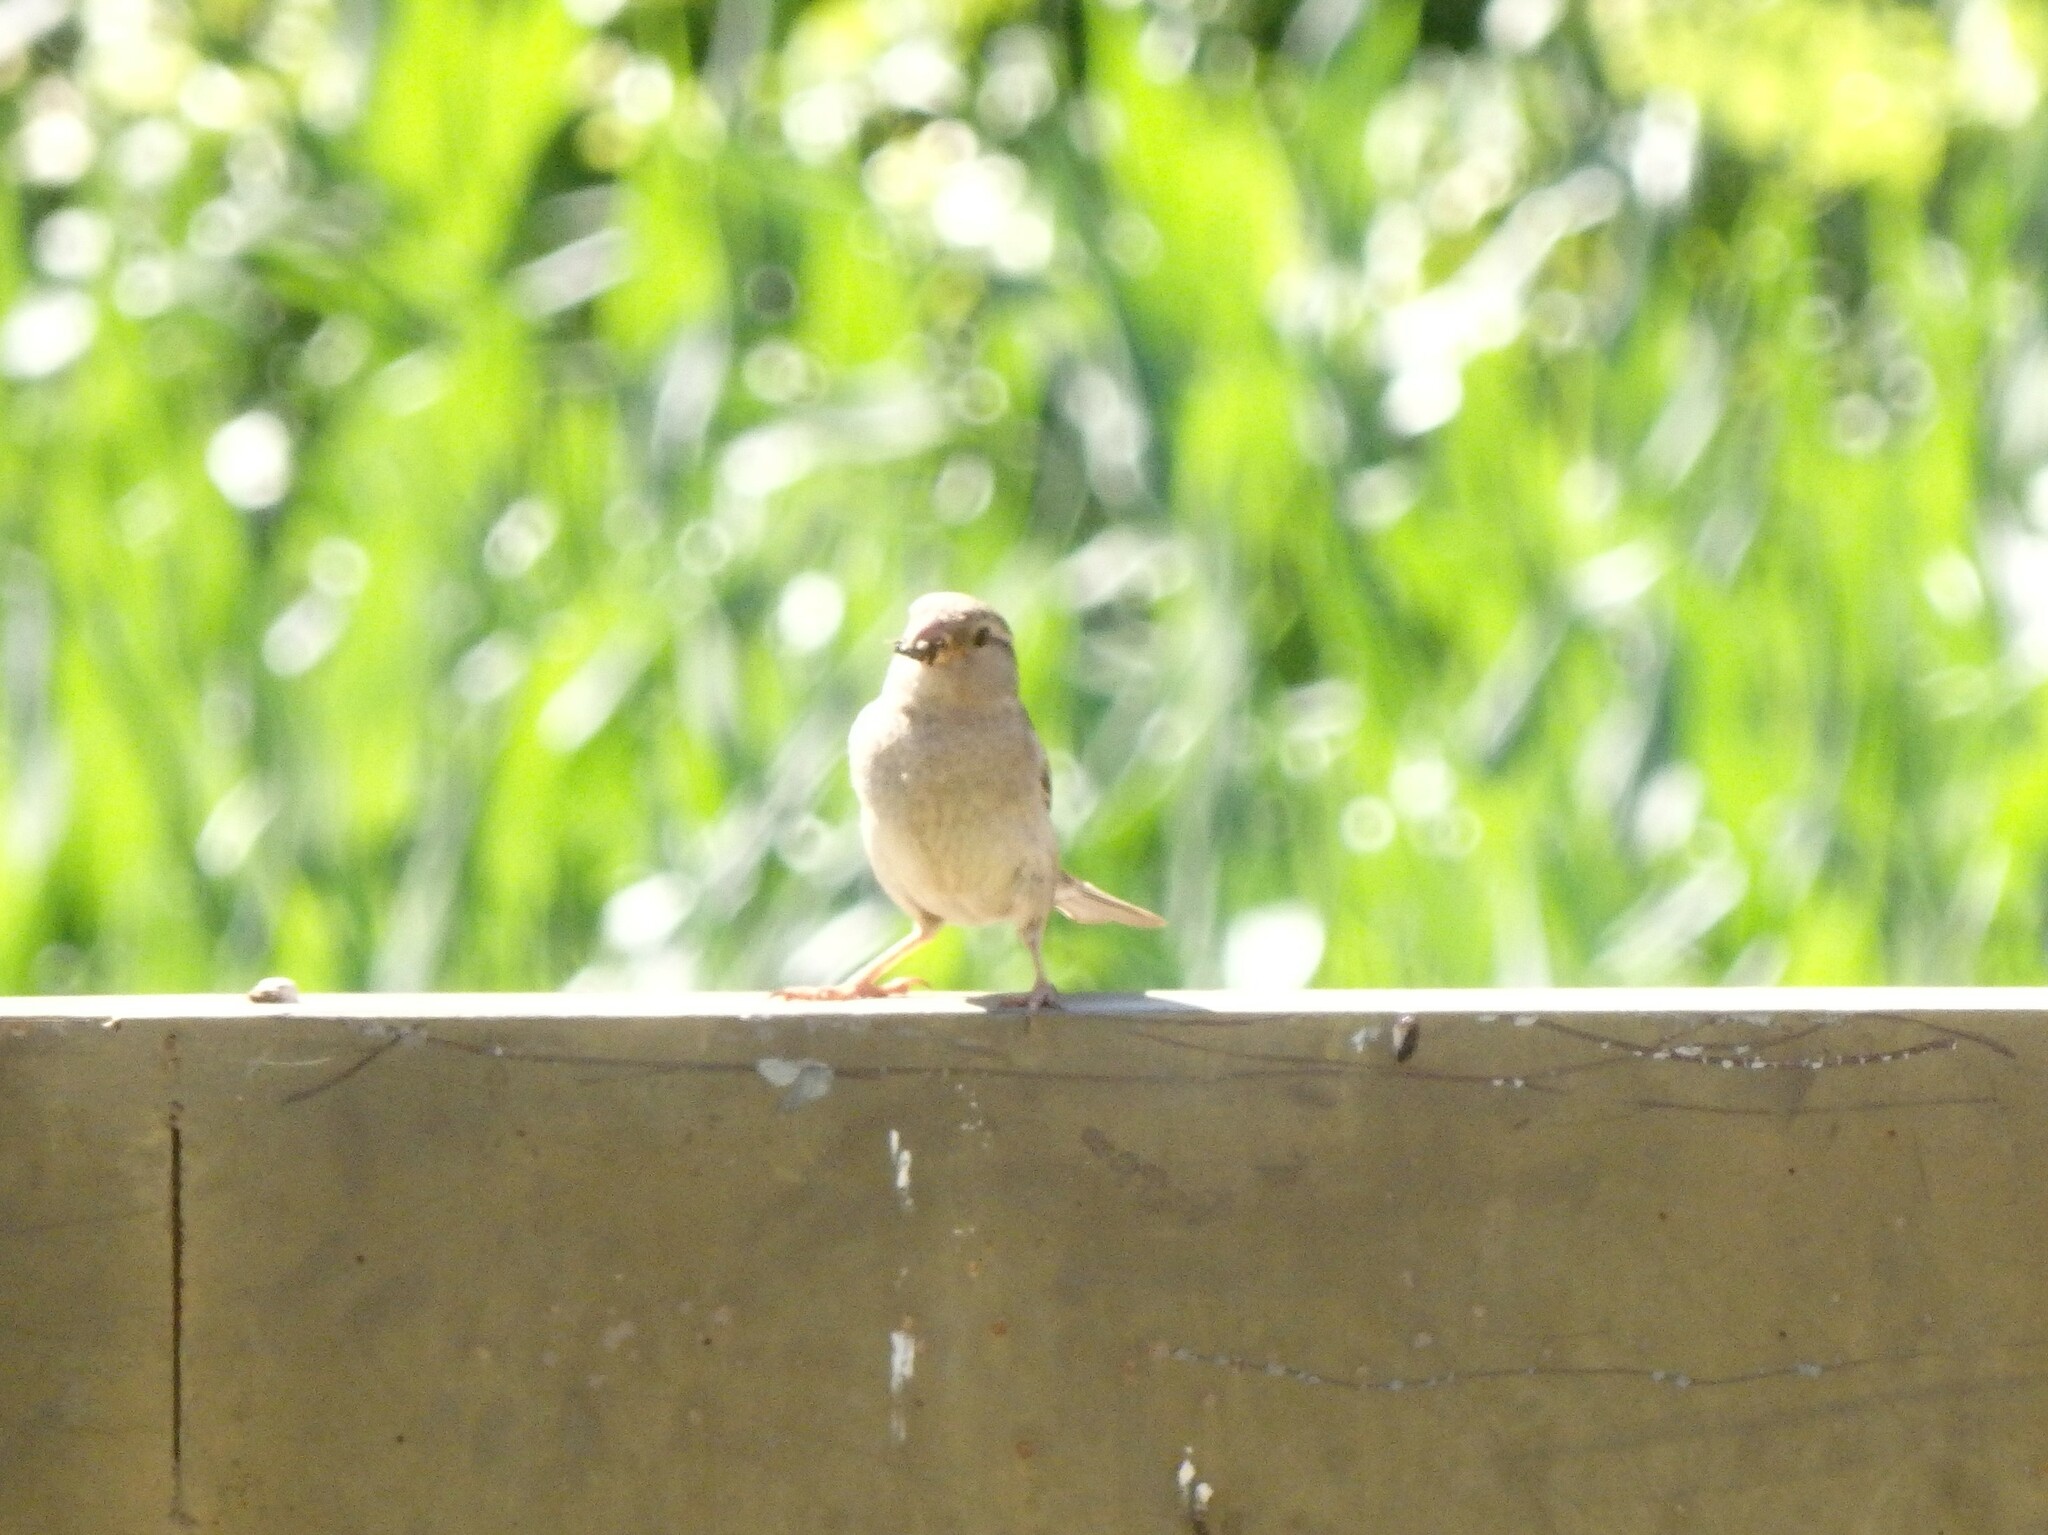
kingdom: Animalia
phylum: Chordata
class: Aves
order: Passeriformes
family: Passeridae
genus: Passer
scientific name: Passer domesticus
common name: House sparrow
